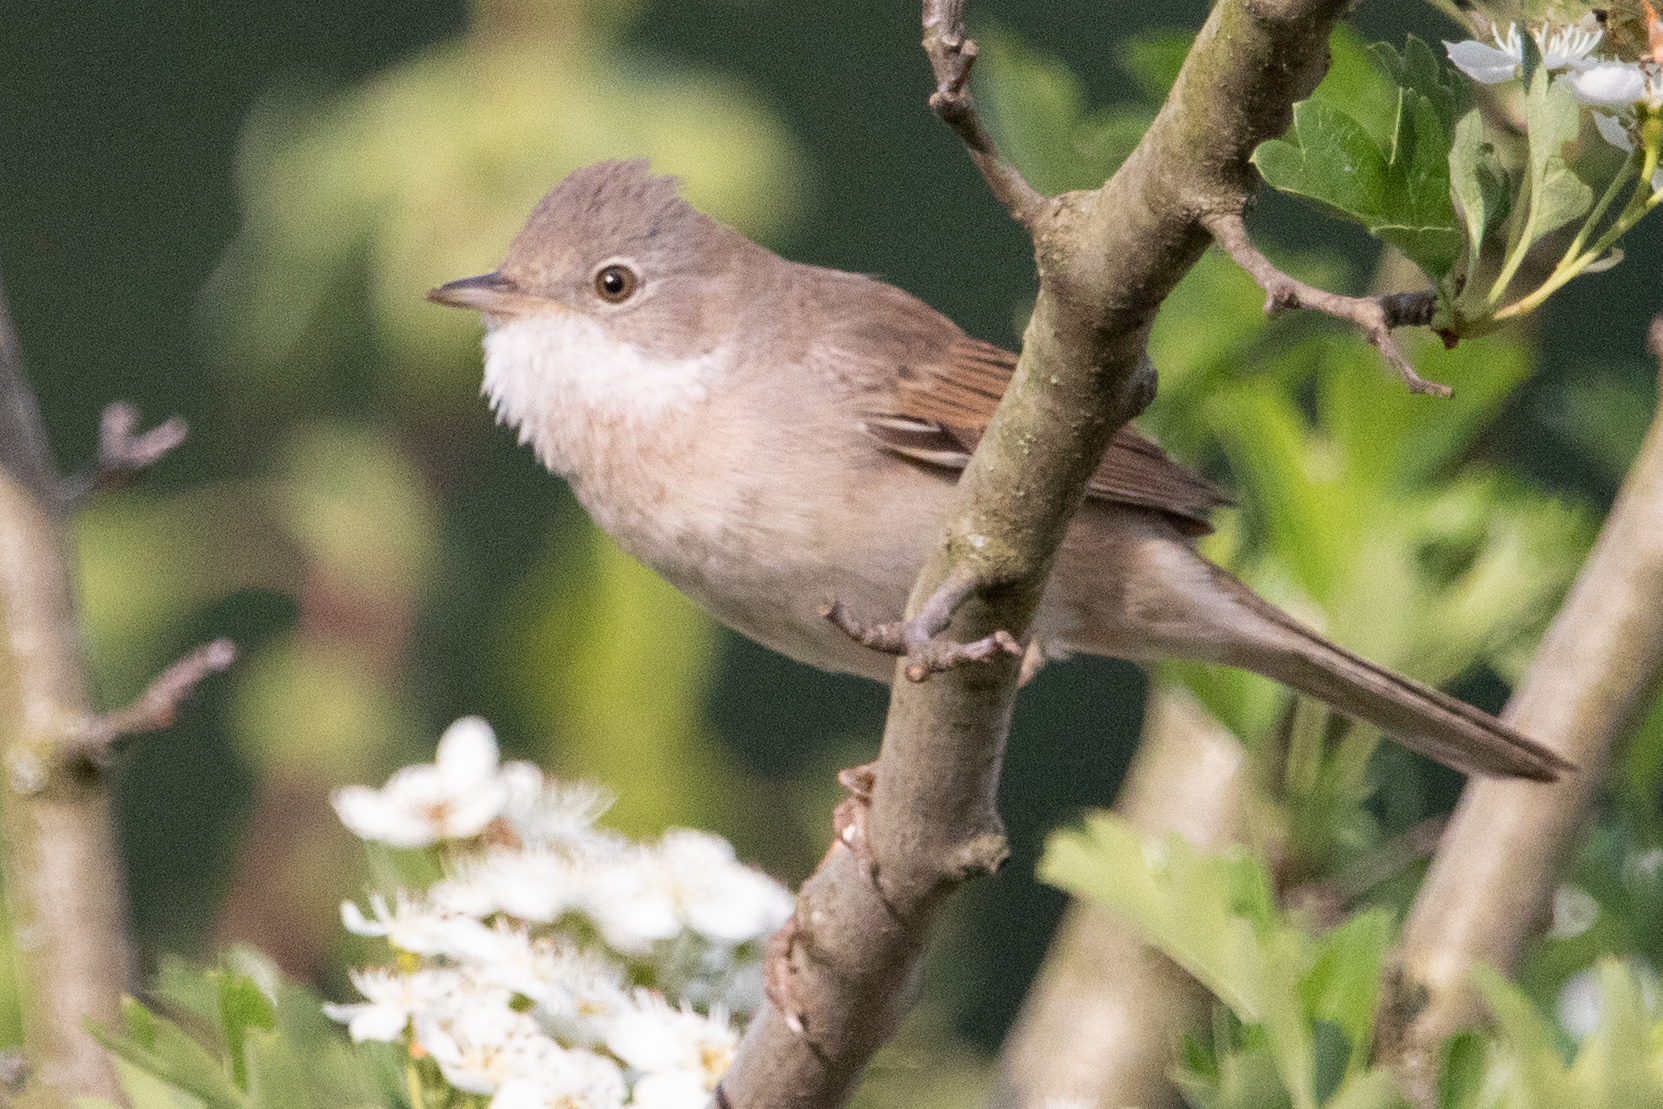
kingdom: Animalia
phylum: Chordata
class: Aves
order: Passeriformes
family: Sylviidae
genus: Sylvia
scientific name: Sylvia communis
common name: Common whitethroat
